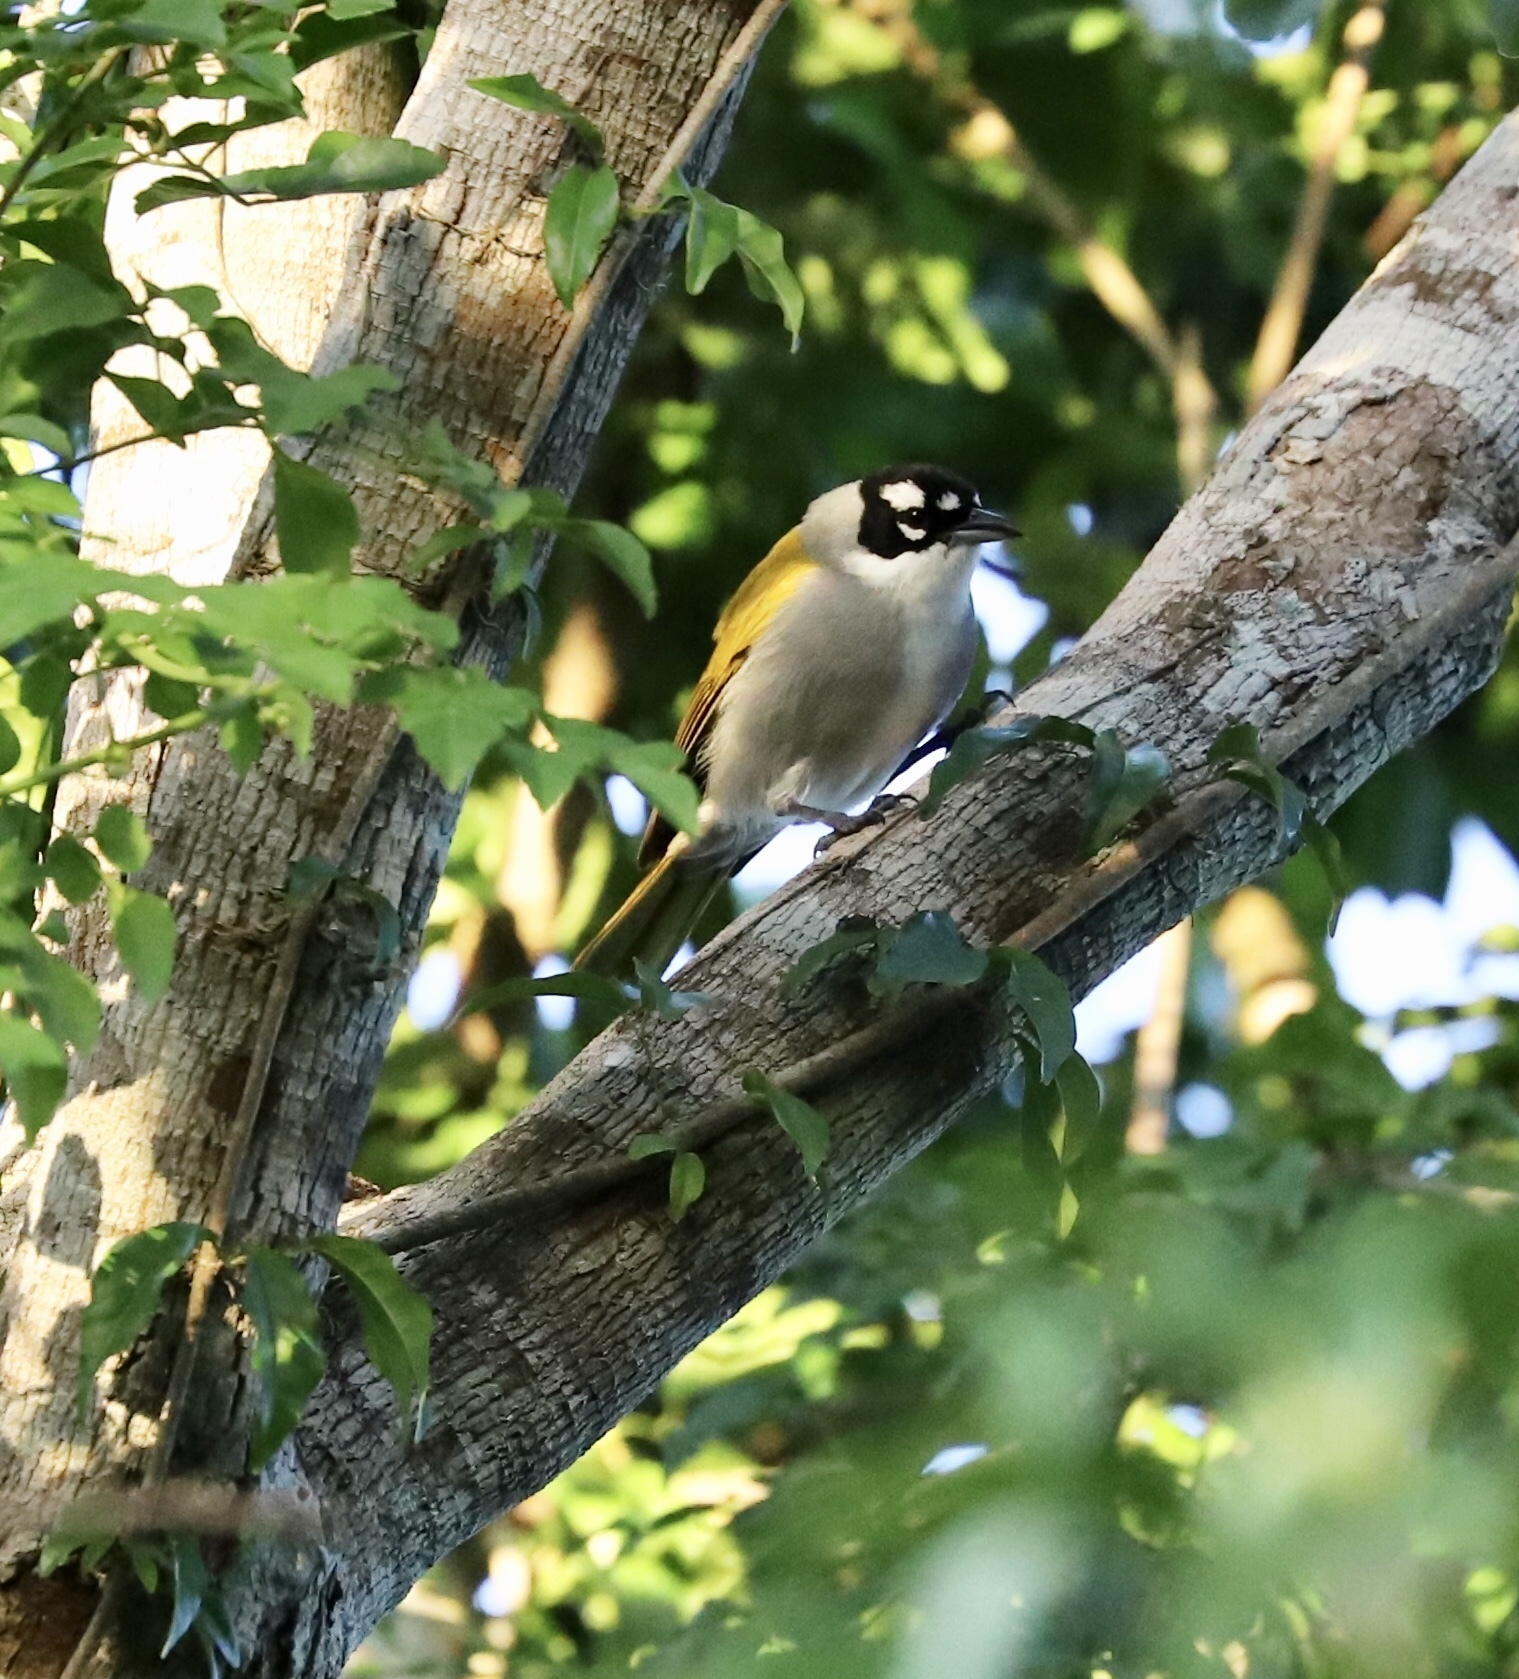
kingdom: Animalia
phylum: Chordata
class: Aves
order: Passeriformes
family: Phaenicophilidae
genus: Phaenicophilus
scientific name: Phaenicophilus palmarum
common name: Black-crowned palm-tanager
